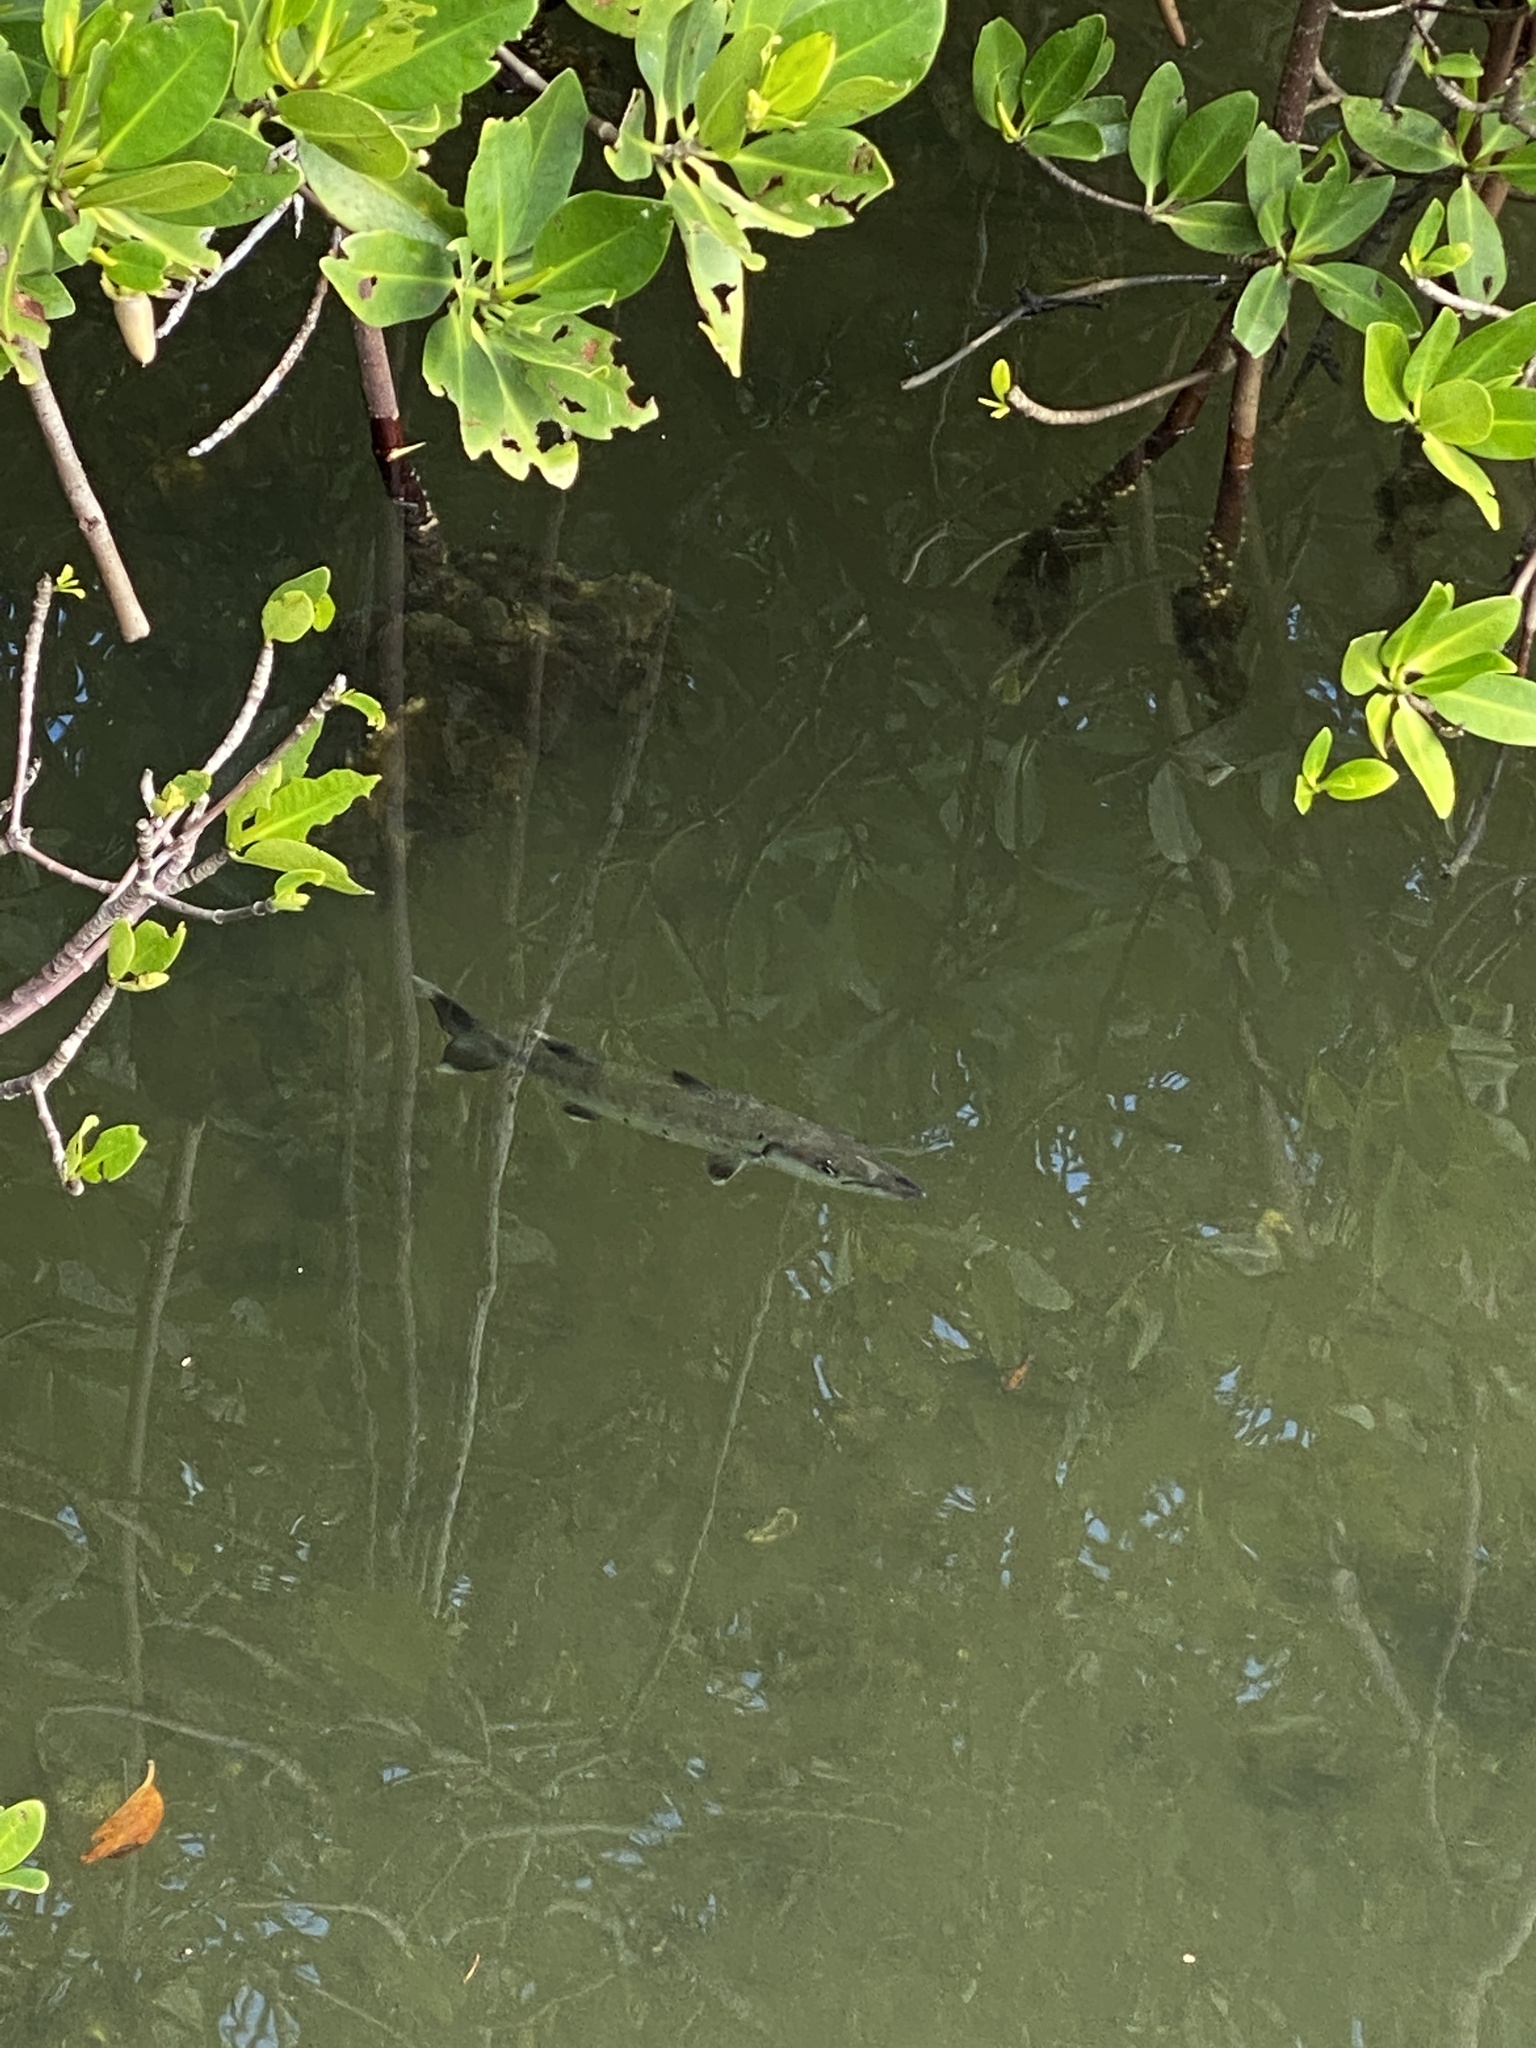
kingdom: Animalia
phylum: Chordata
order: Perciformes
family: Sphyraenidae
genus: Sphyraena
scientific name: Sphyraena barracuda
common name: Great barracuda
